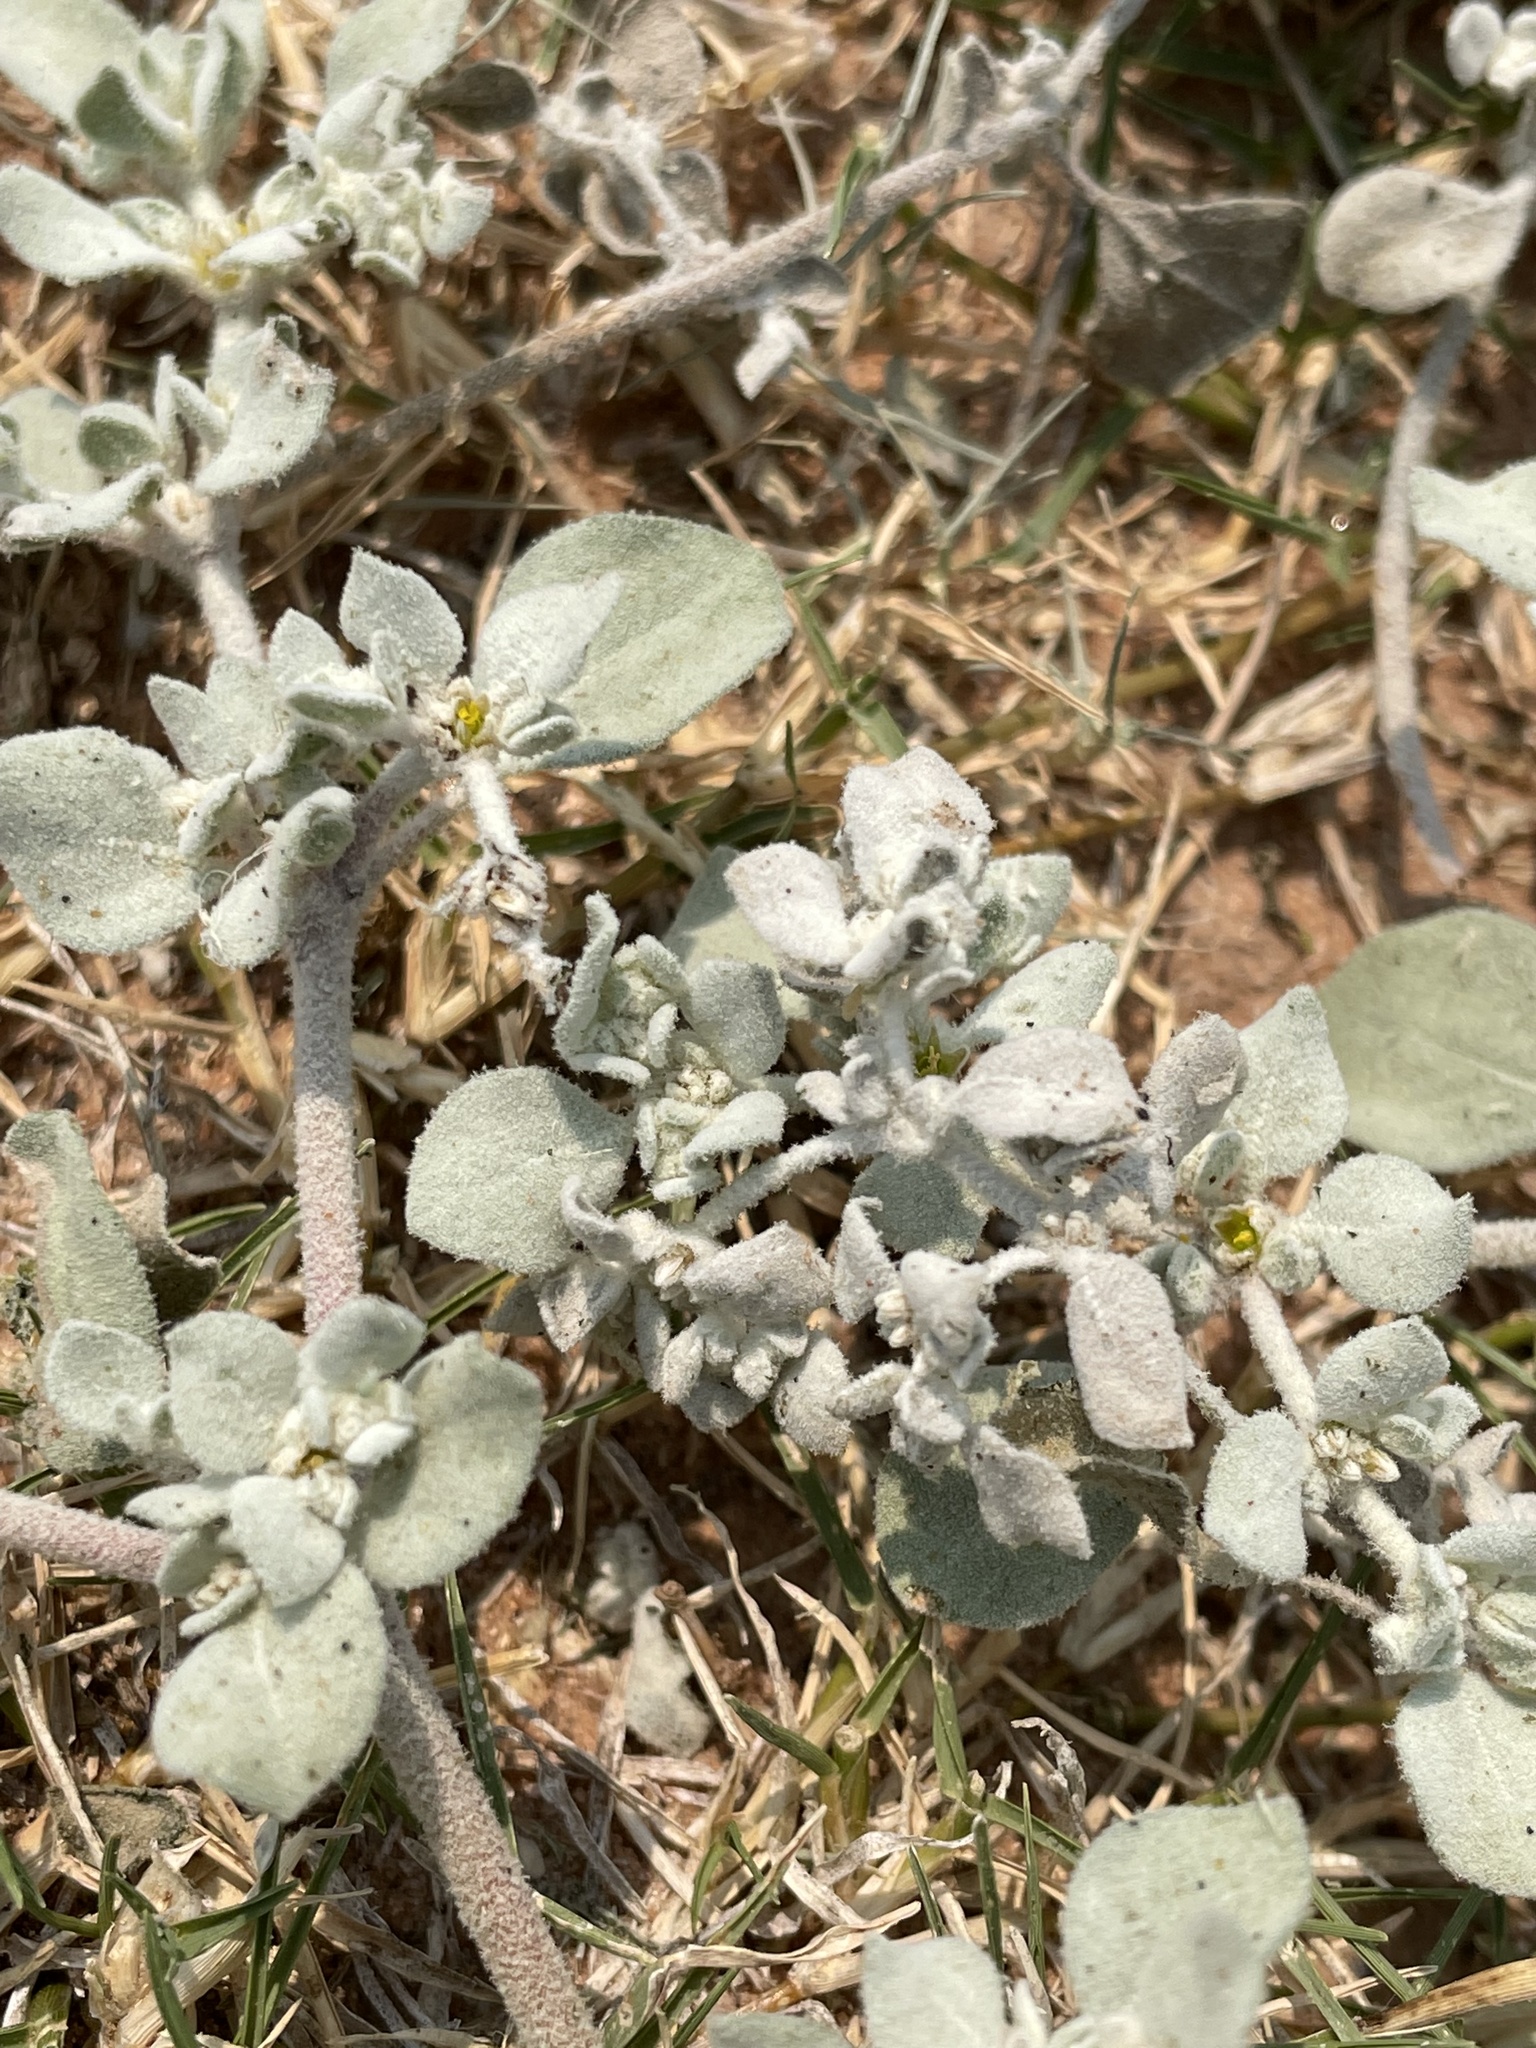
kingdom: Plantae
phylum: Tracheophyta
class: Magnoliopsida
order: Caryophyllales
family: Amaranthaceae
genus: Tidestromia
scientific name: Tidestromia lanuginosa
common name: Woolly tidestromia
